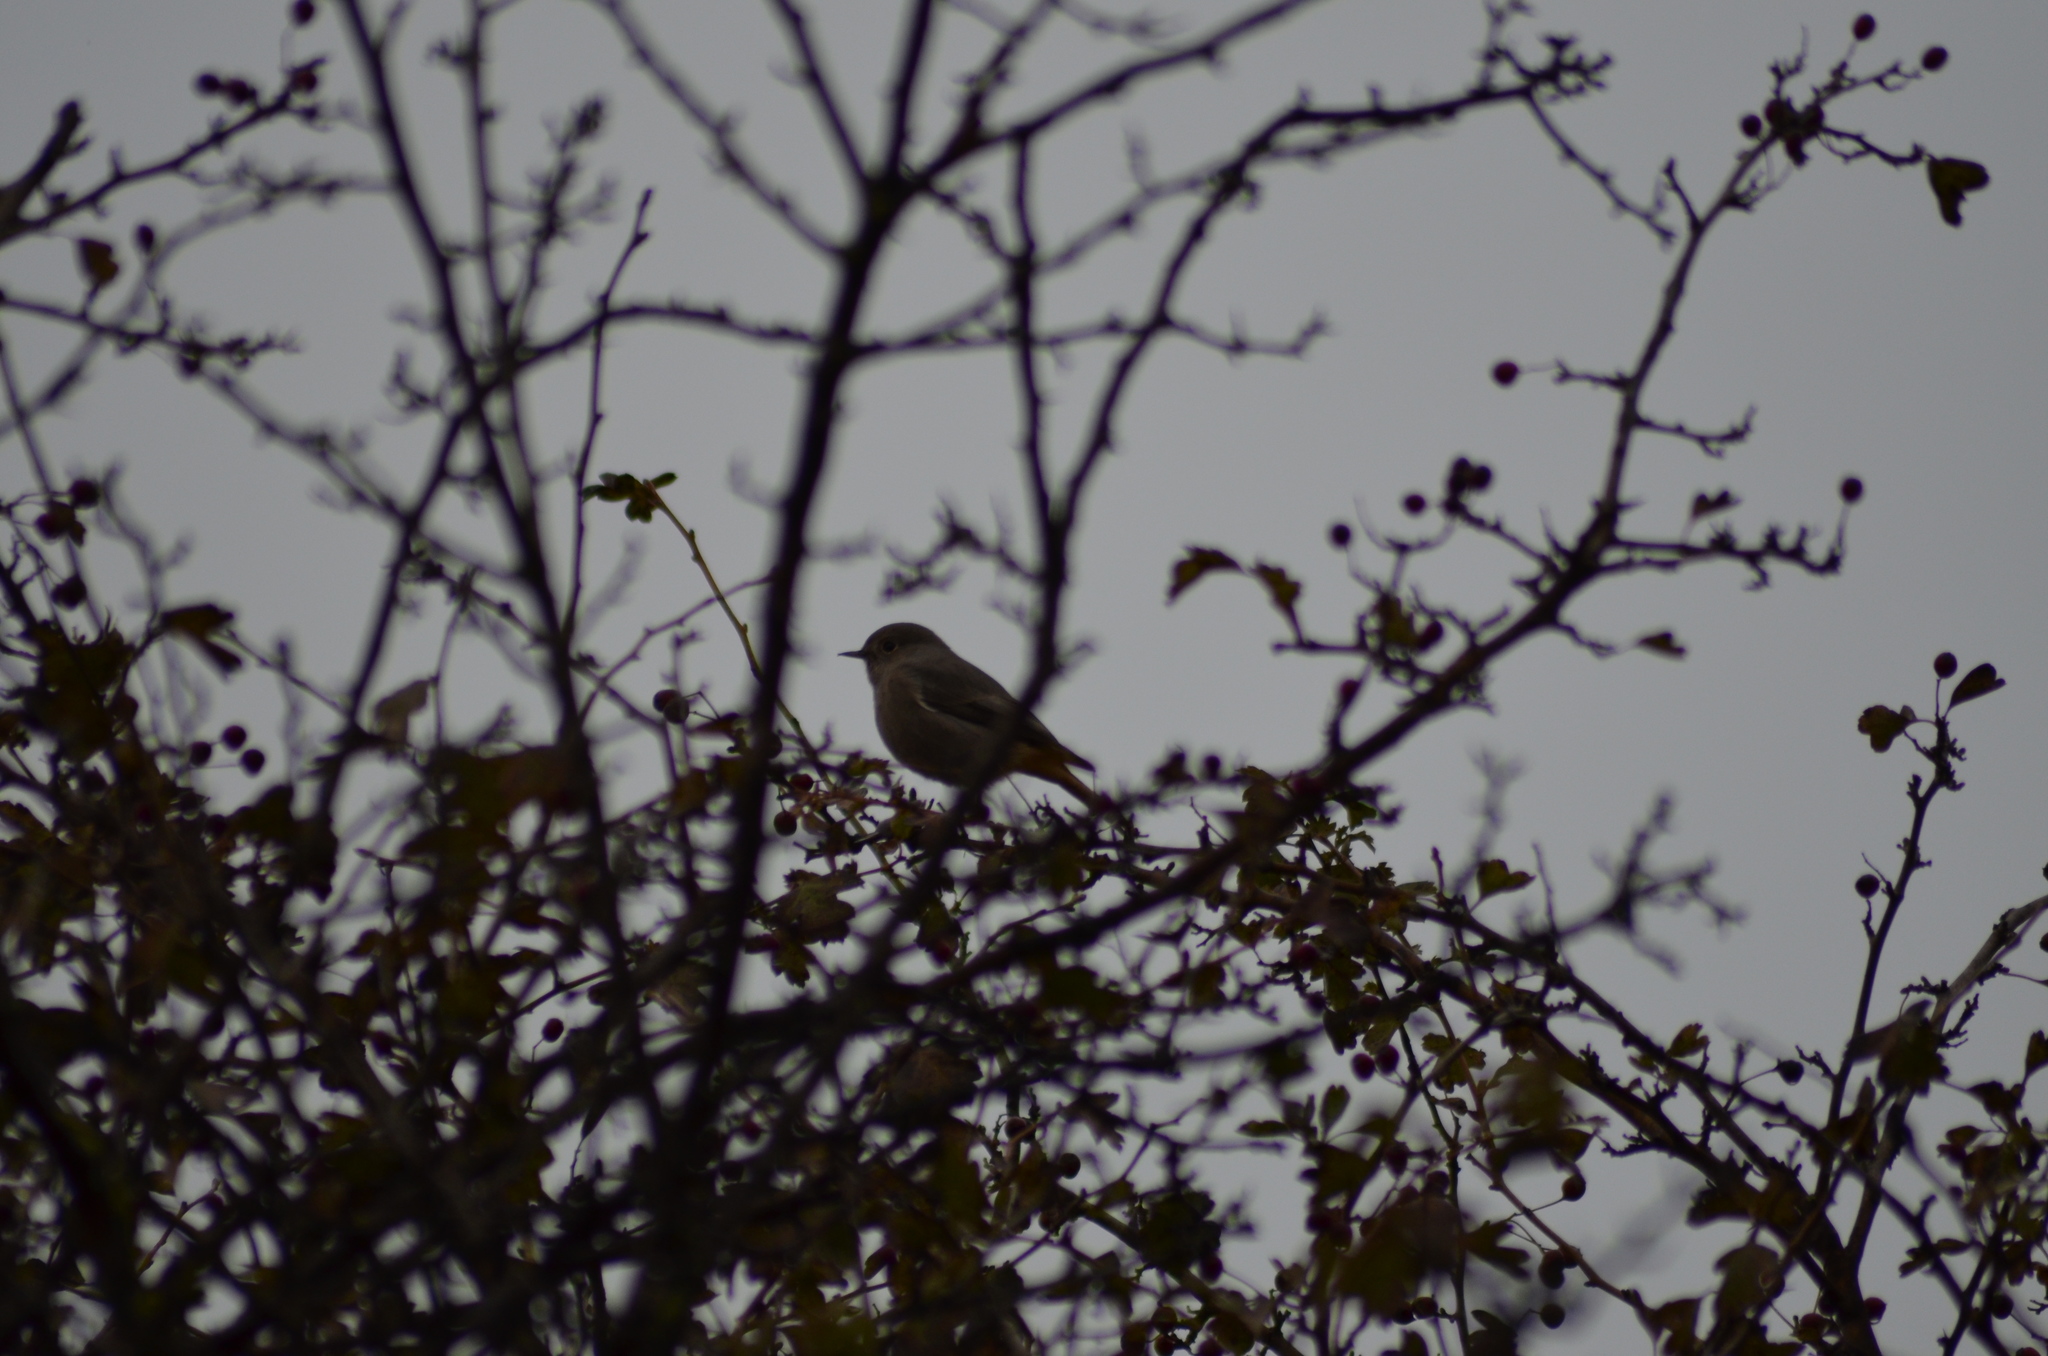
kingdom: Animalia
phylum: Chordata
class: Aves
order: Passeriformes
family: Muscicapidae
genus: Phoenicurus
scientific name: Phoenicurus ochruros
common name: Black redstart
